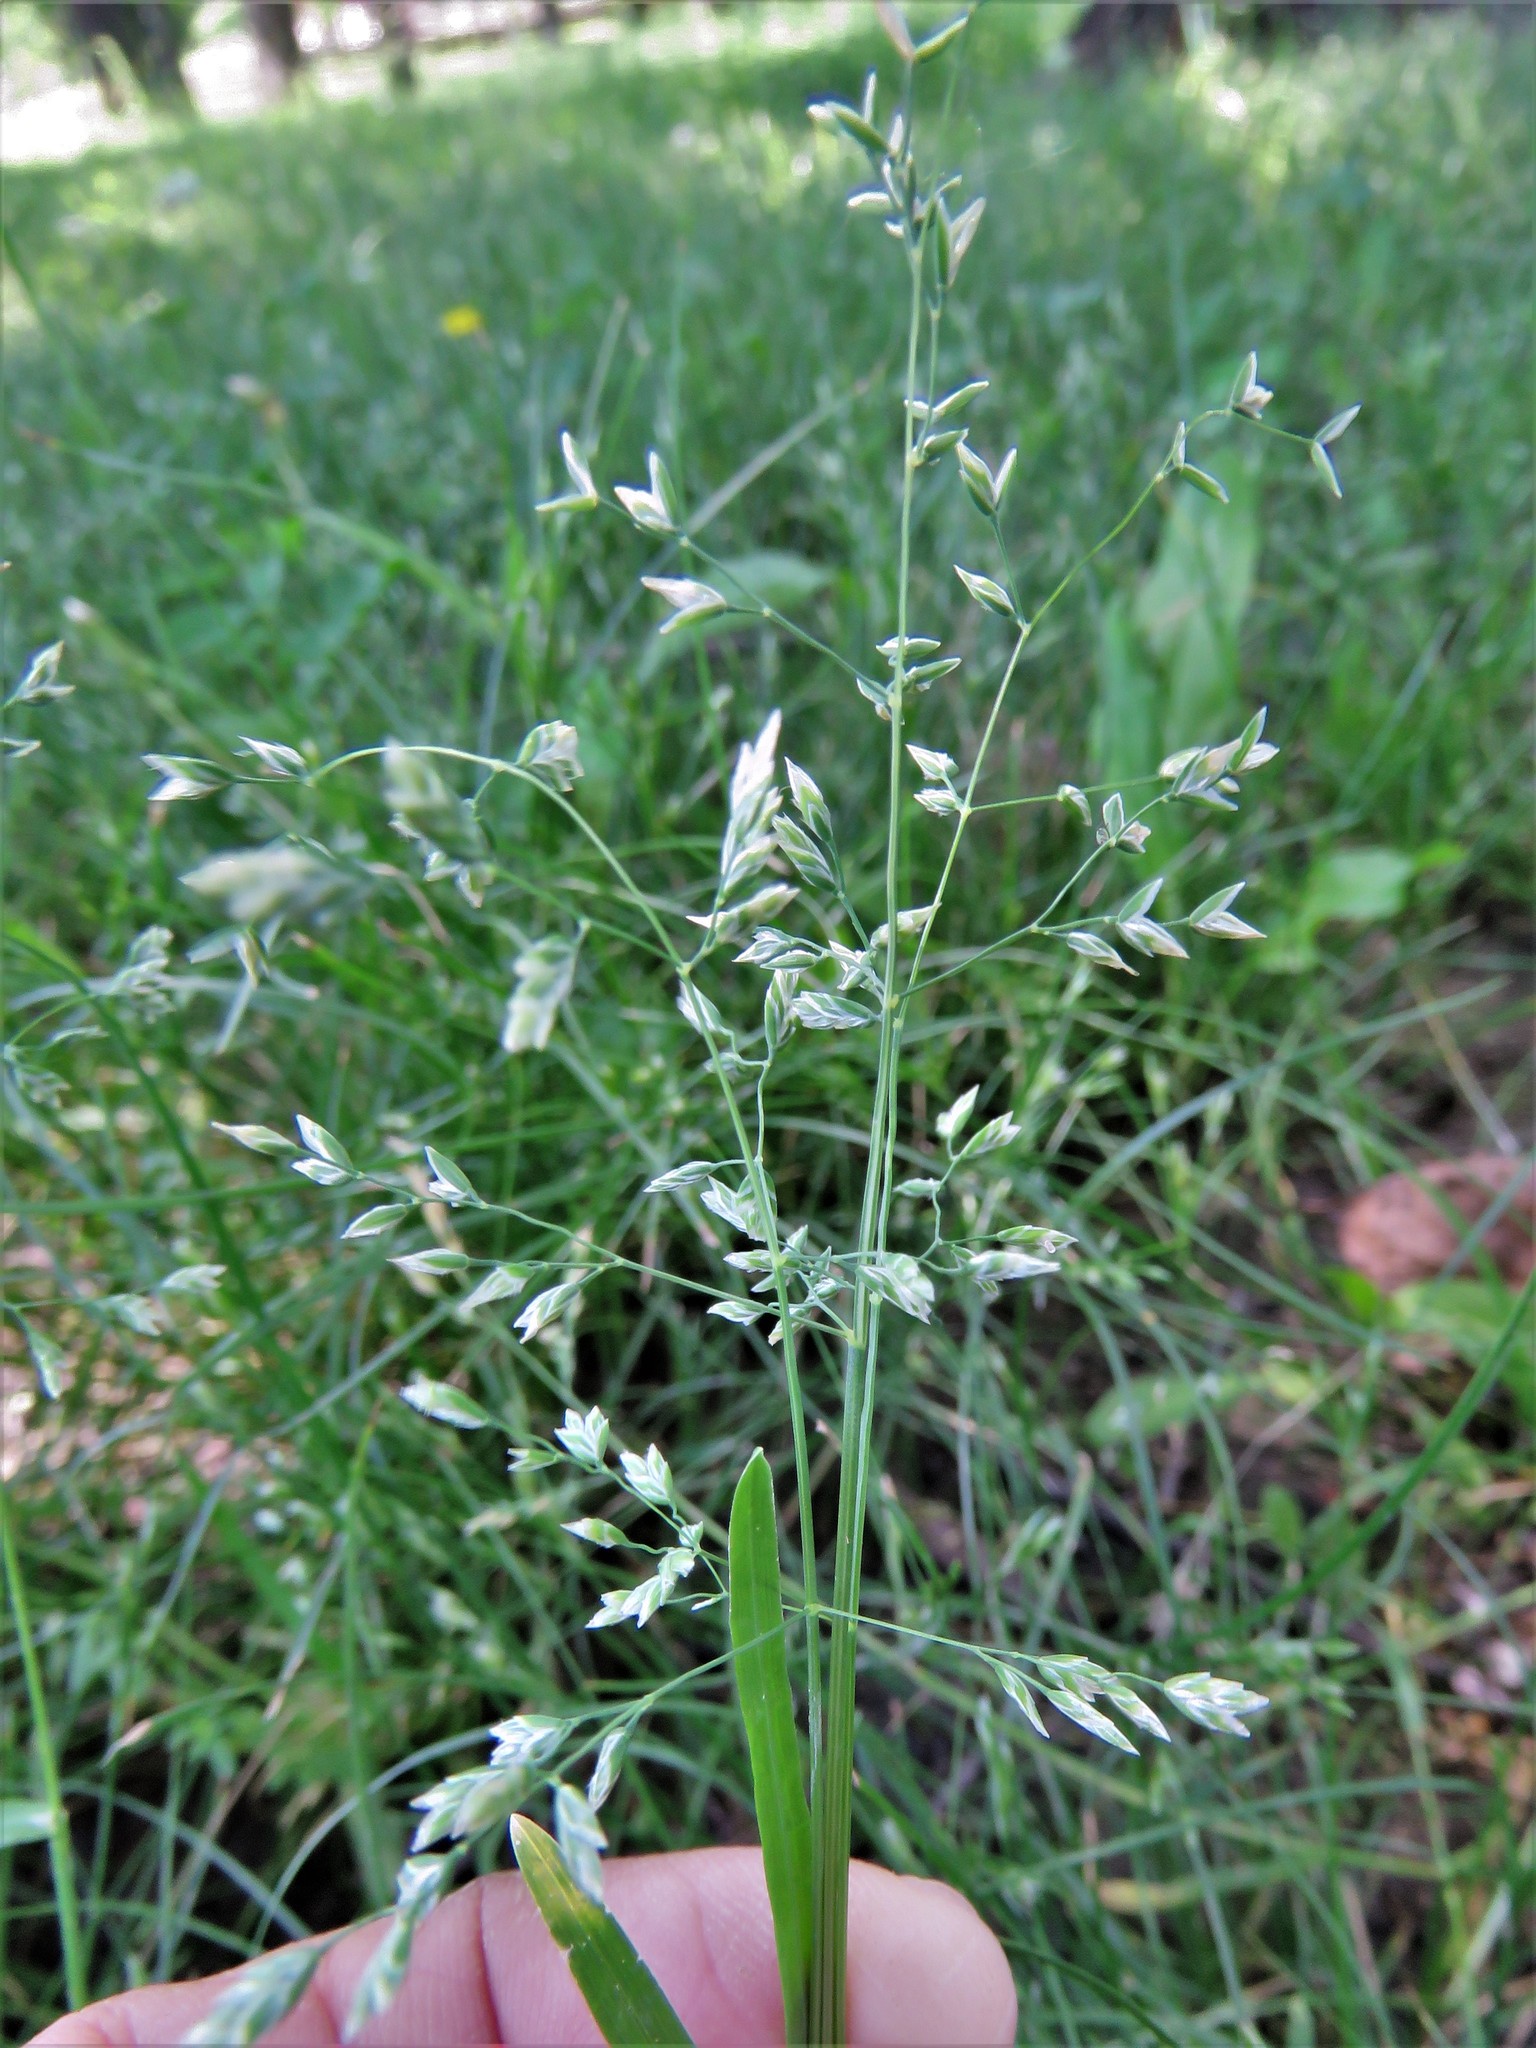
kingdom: Plantae
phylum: Tracheophyta
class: Liliopsida
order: Poales
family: Poaceae
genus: Poa
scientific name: Poa annua
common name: Annual bluegrass
